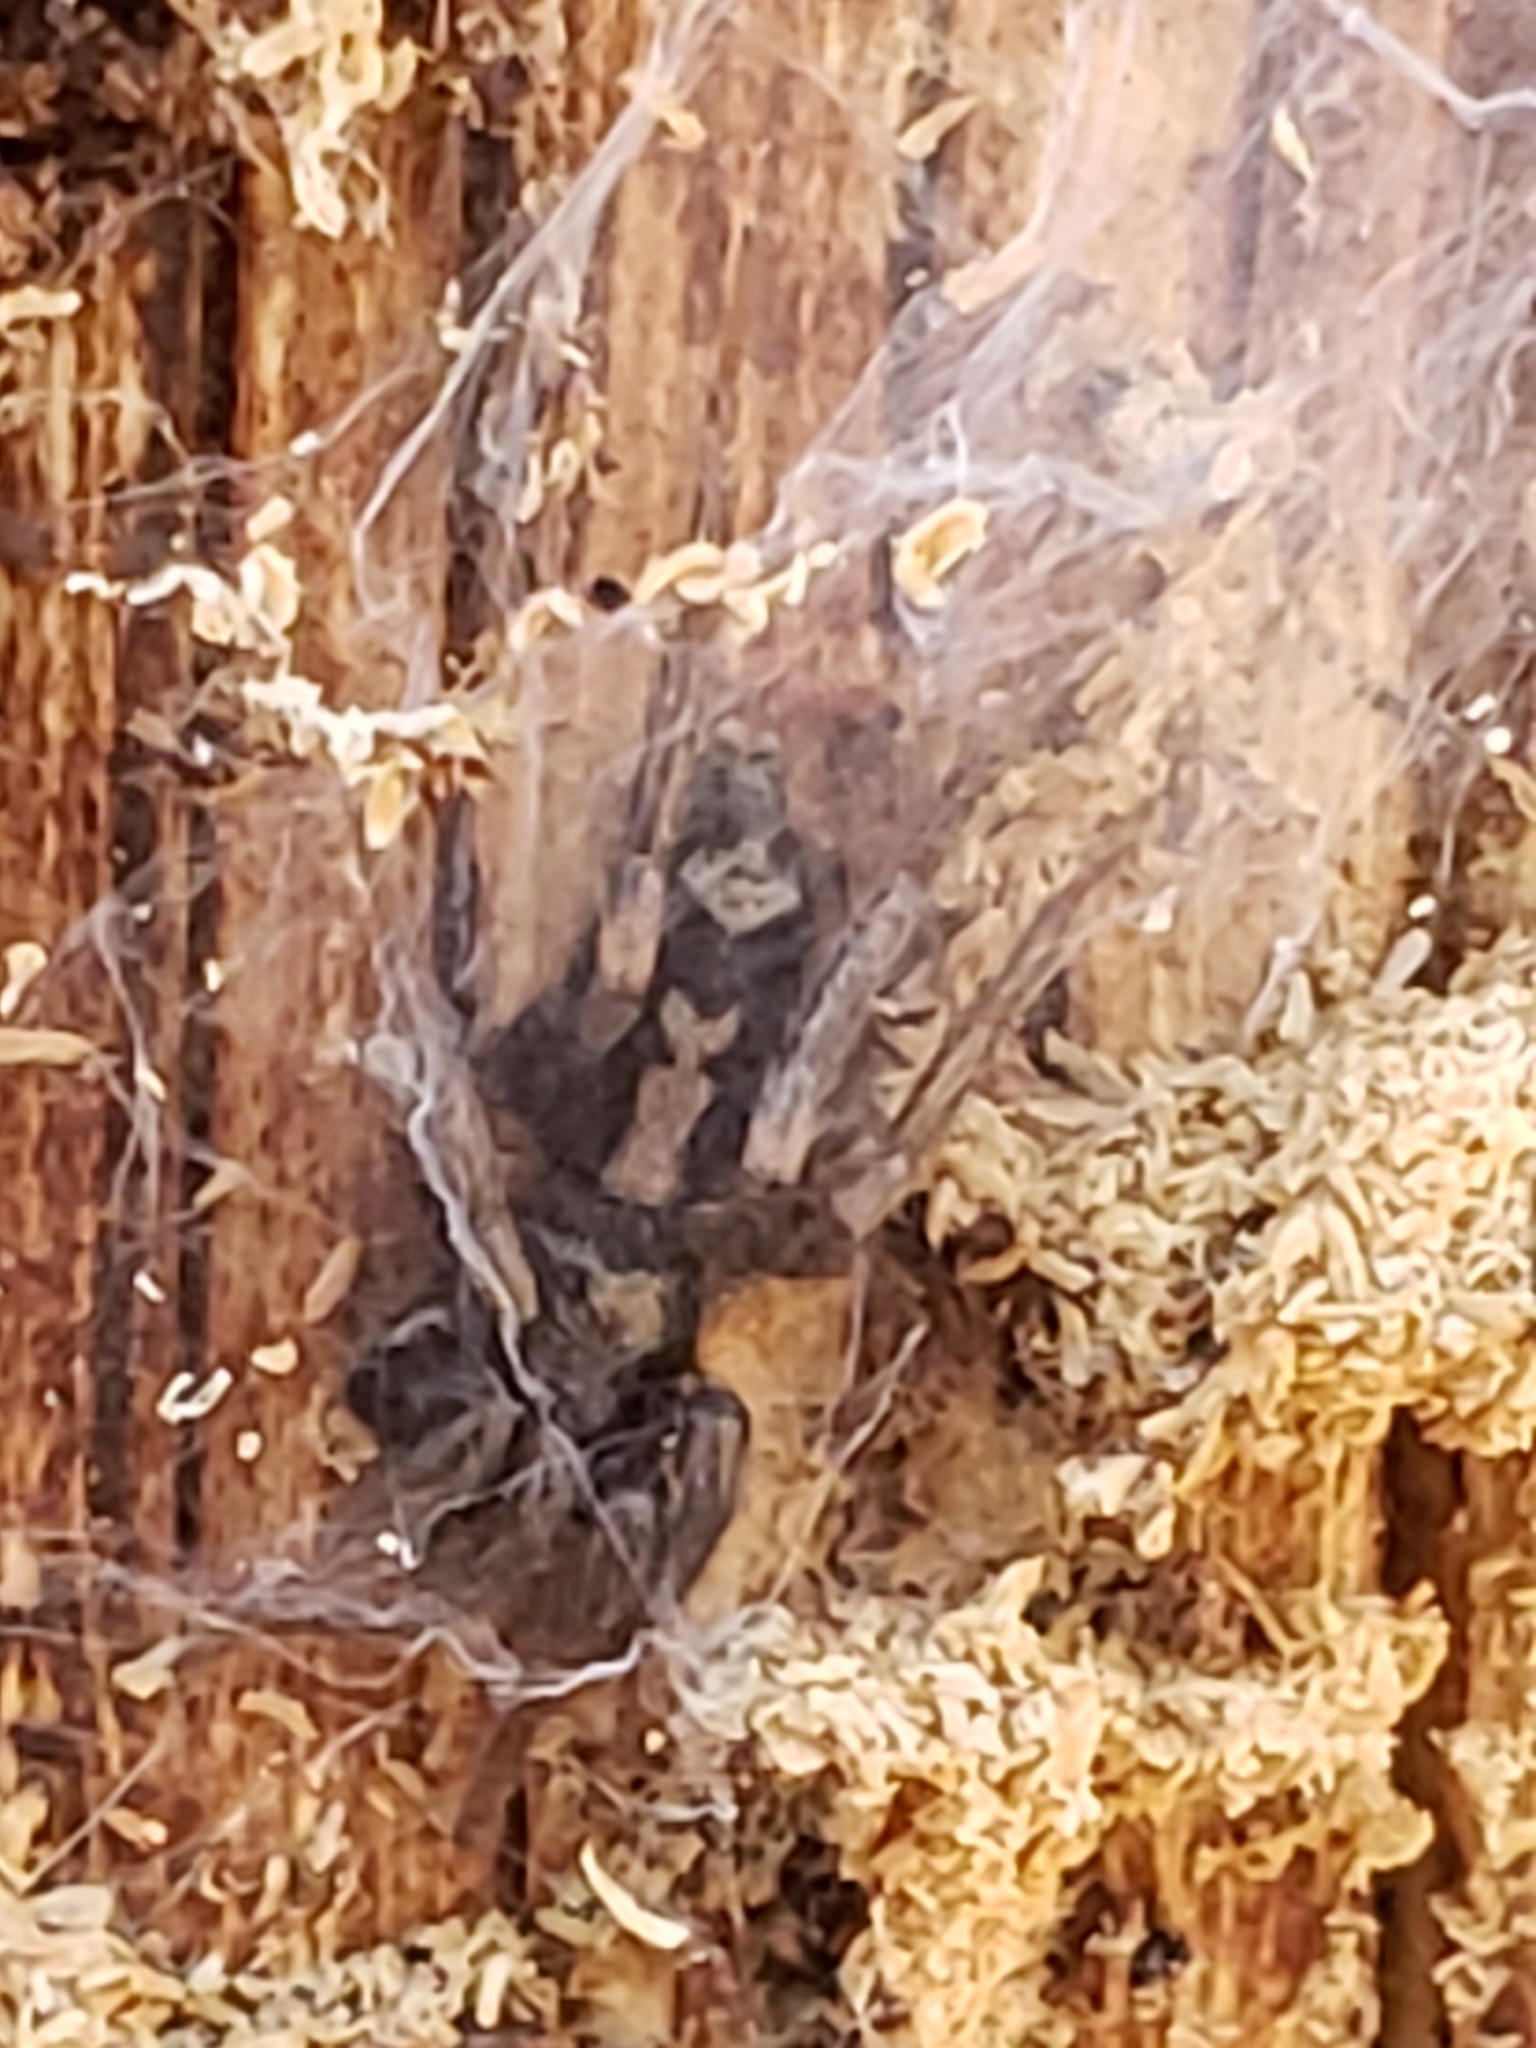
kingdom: Animalia
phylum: Arthropoda
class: Arachnida
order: Araneae
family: Gnaphosidae
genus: Herpyllus
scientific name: Herpyllus ecclesiasticus
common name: Eastern parson spider
